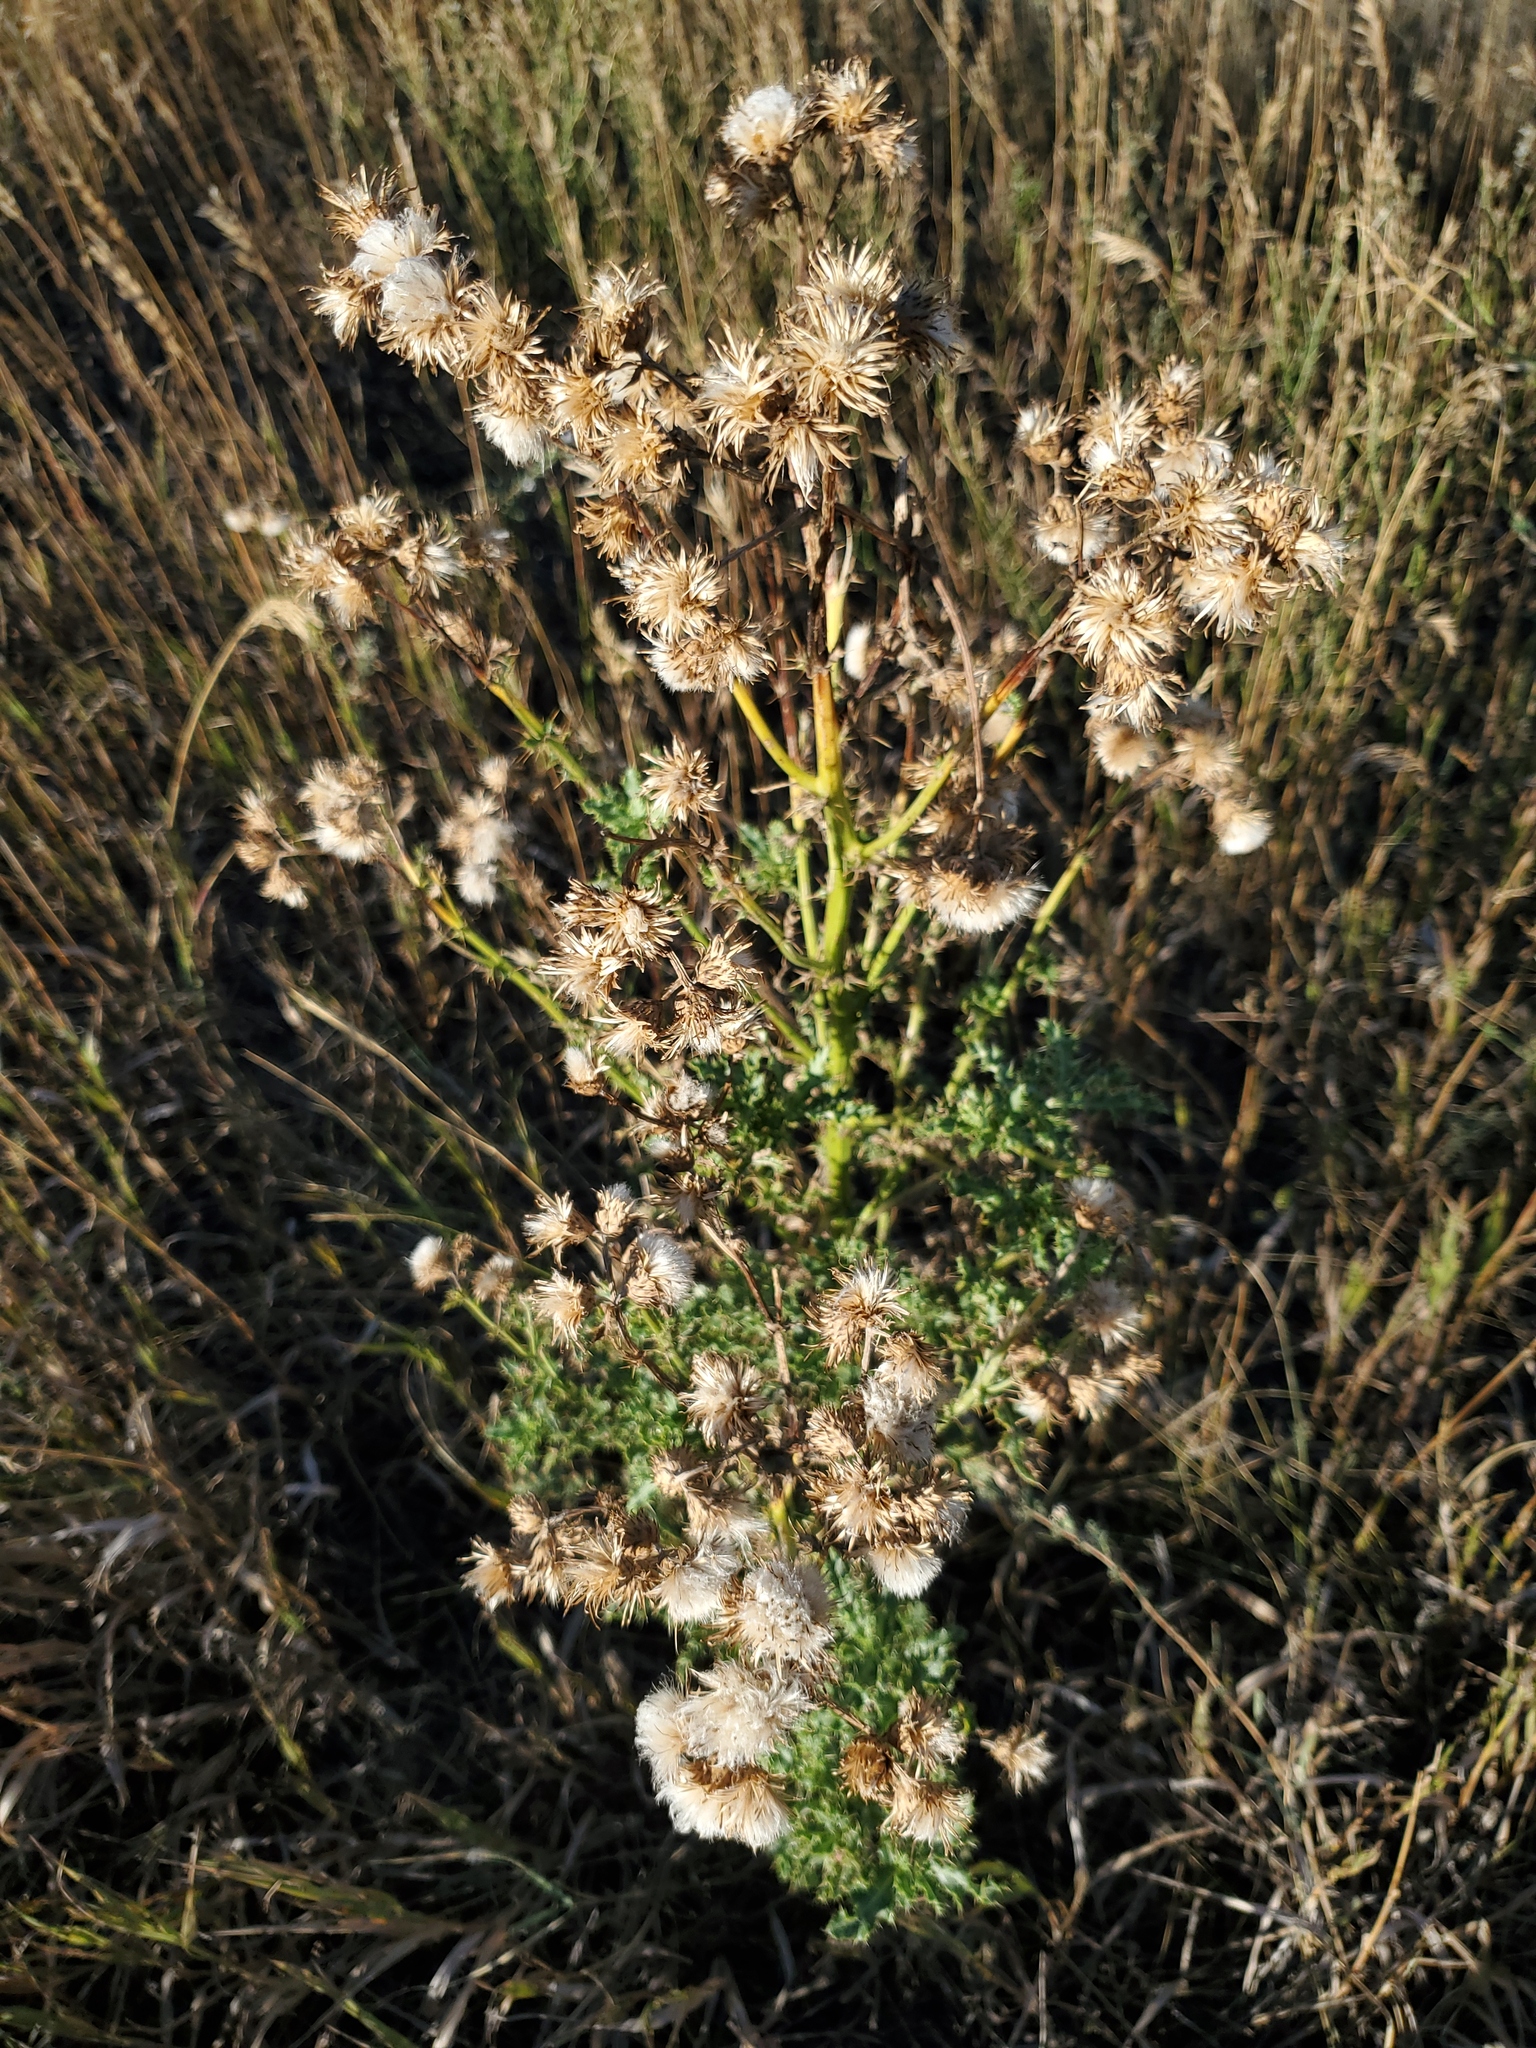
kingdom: Plantae
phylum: Tracheophyta
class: Magnoliopsida
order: Asterales
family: Asteraceae
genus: Cirsium
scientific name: Cirsium arvense
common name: Creeping thistle
